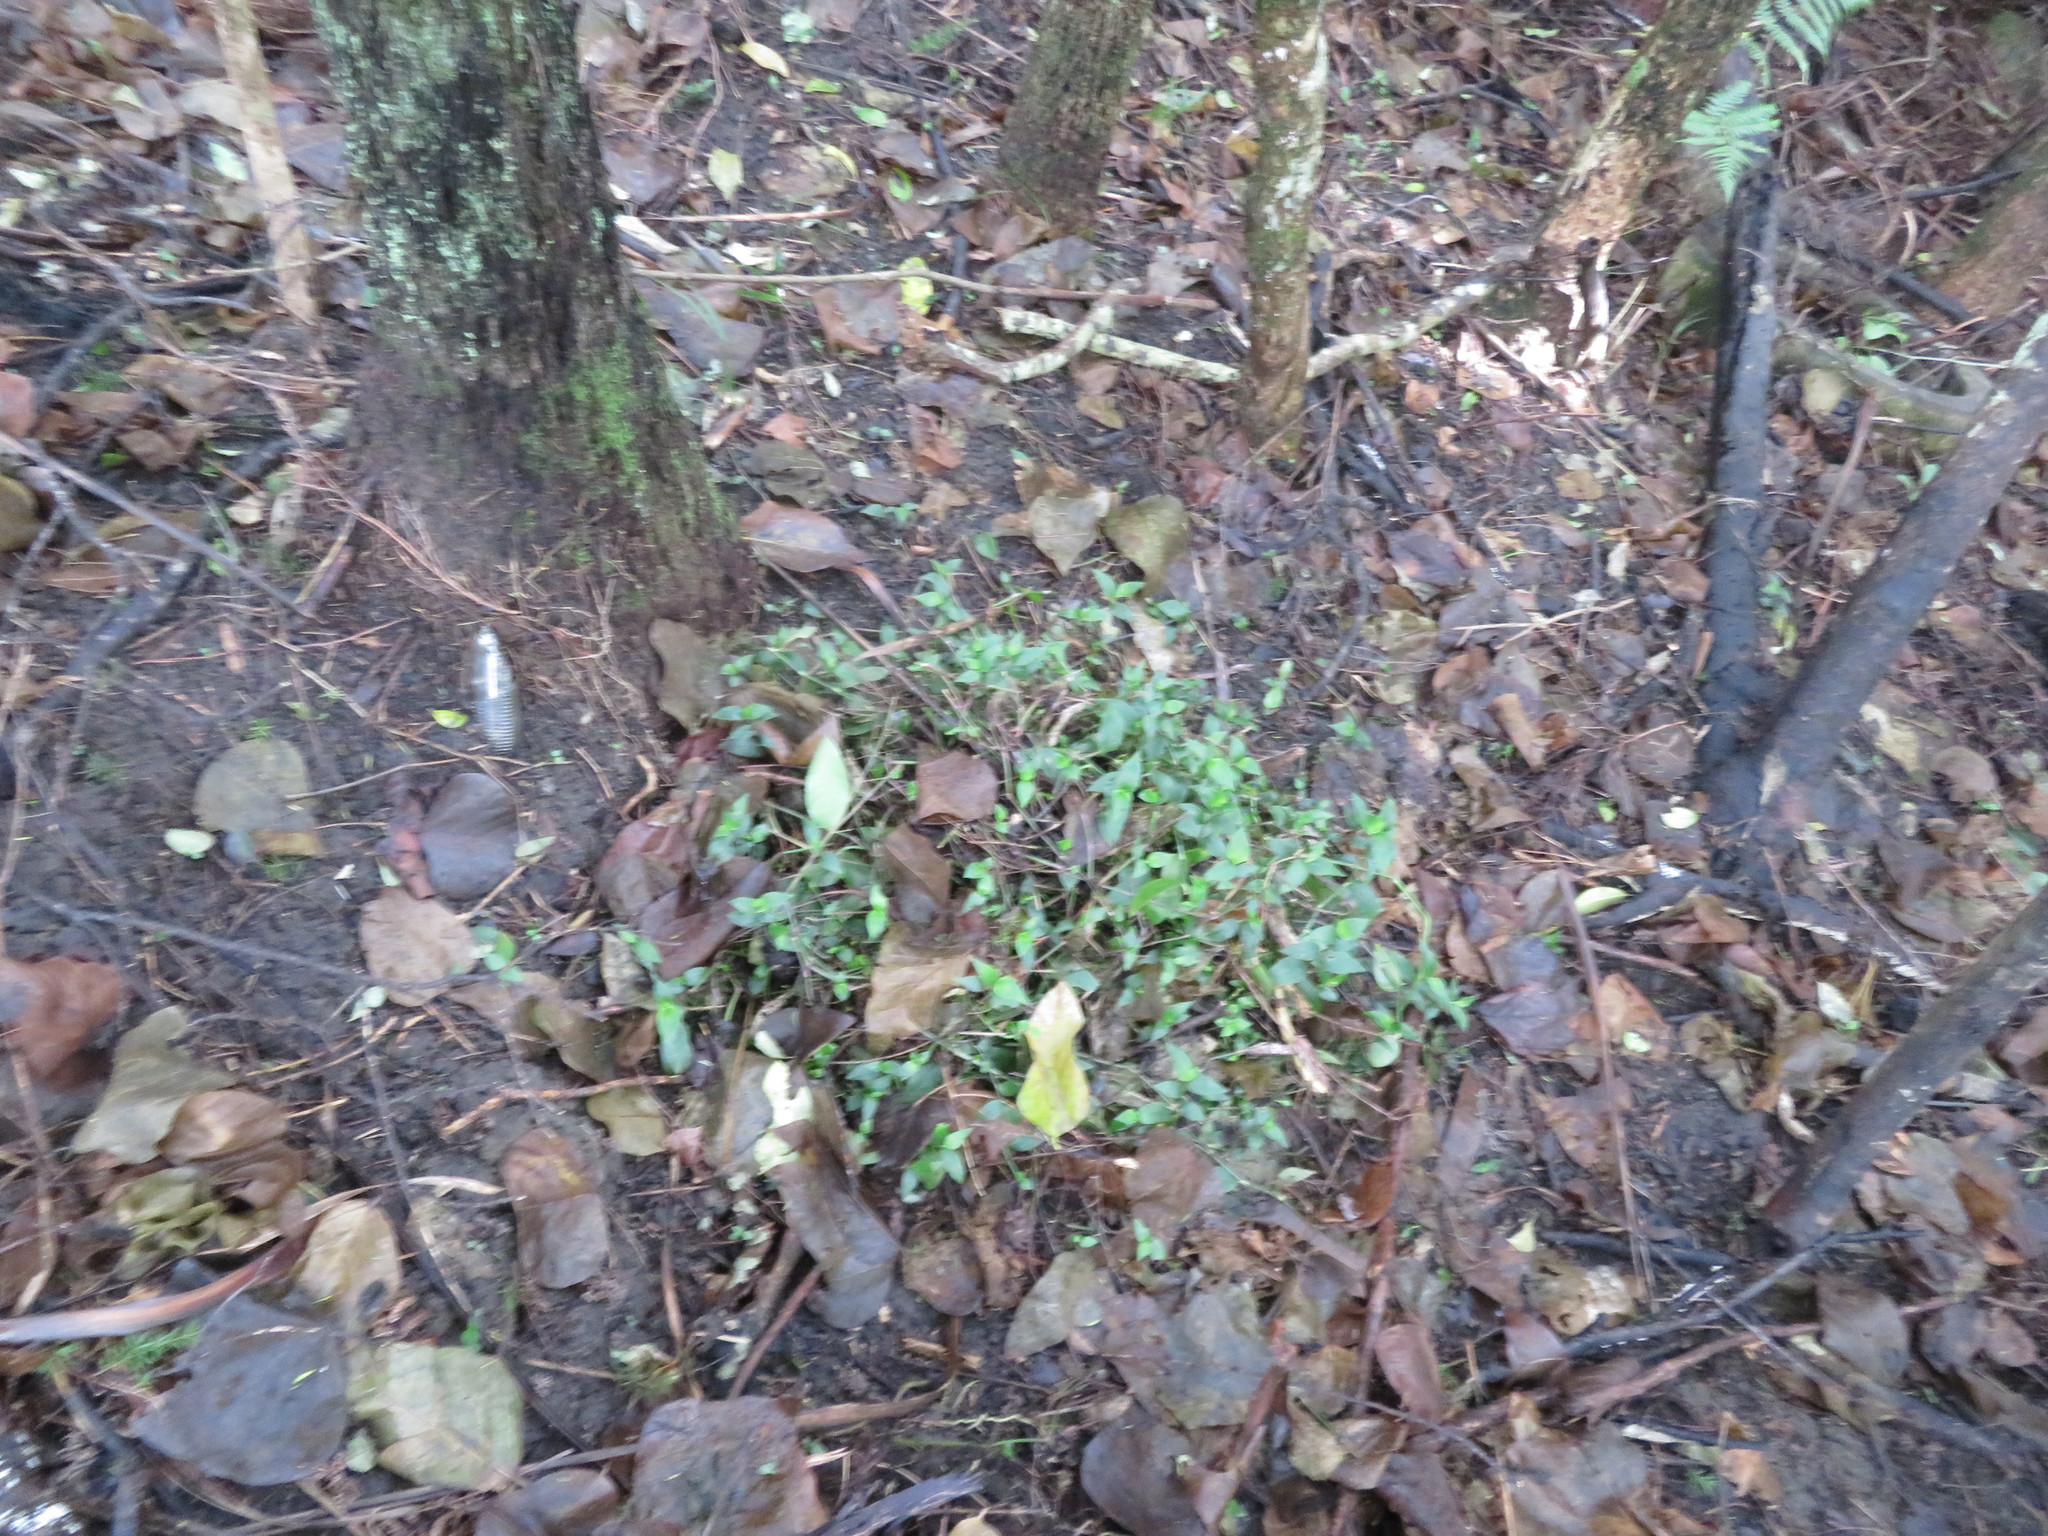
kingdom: Plantae
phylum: Tracheophyta
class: Liliopsida
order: Commelinales
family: Commelinaceae
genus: Tradescantia
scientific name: Tradescantia fluminensis
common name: Wandering-jew
